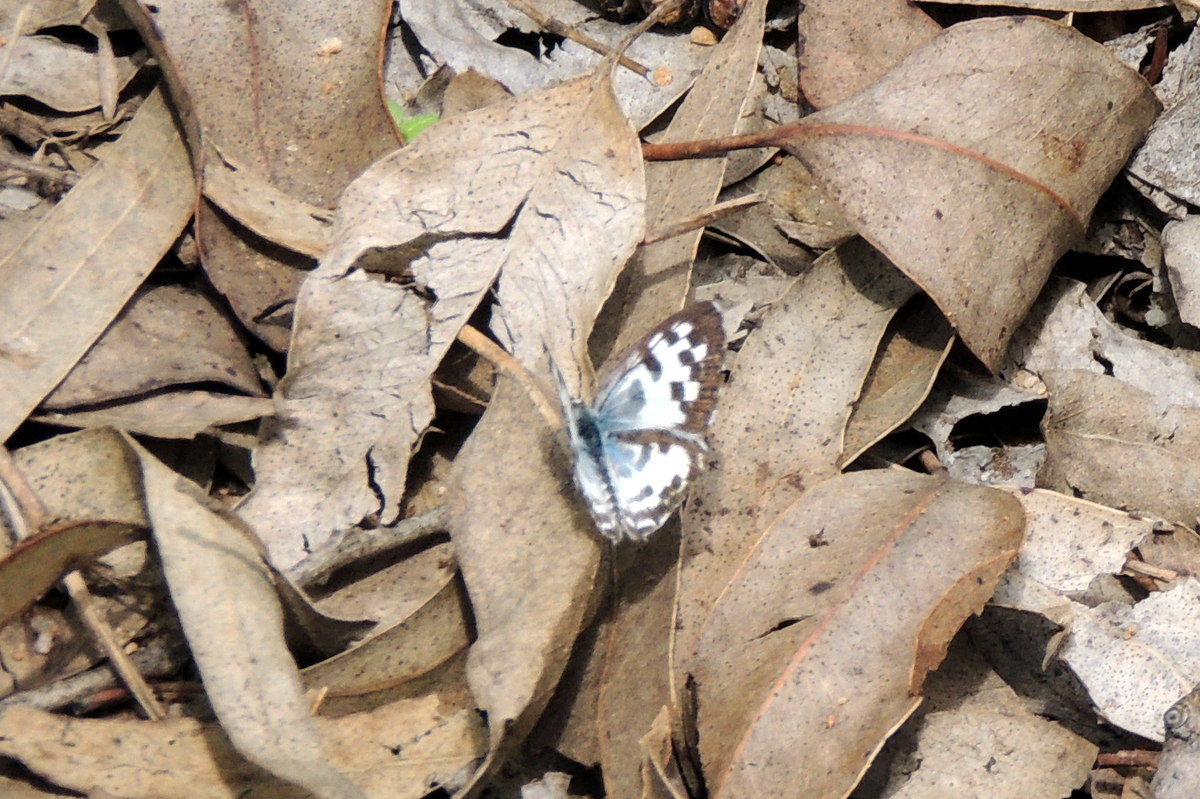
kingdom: Animalia
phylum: Arthropoda
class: Insecta
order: Lepidoptera
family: Lycaenidae
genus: Castalius
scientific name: Castalius rosimon
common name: Common pierrot
